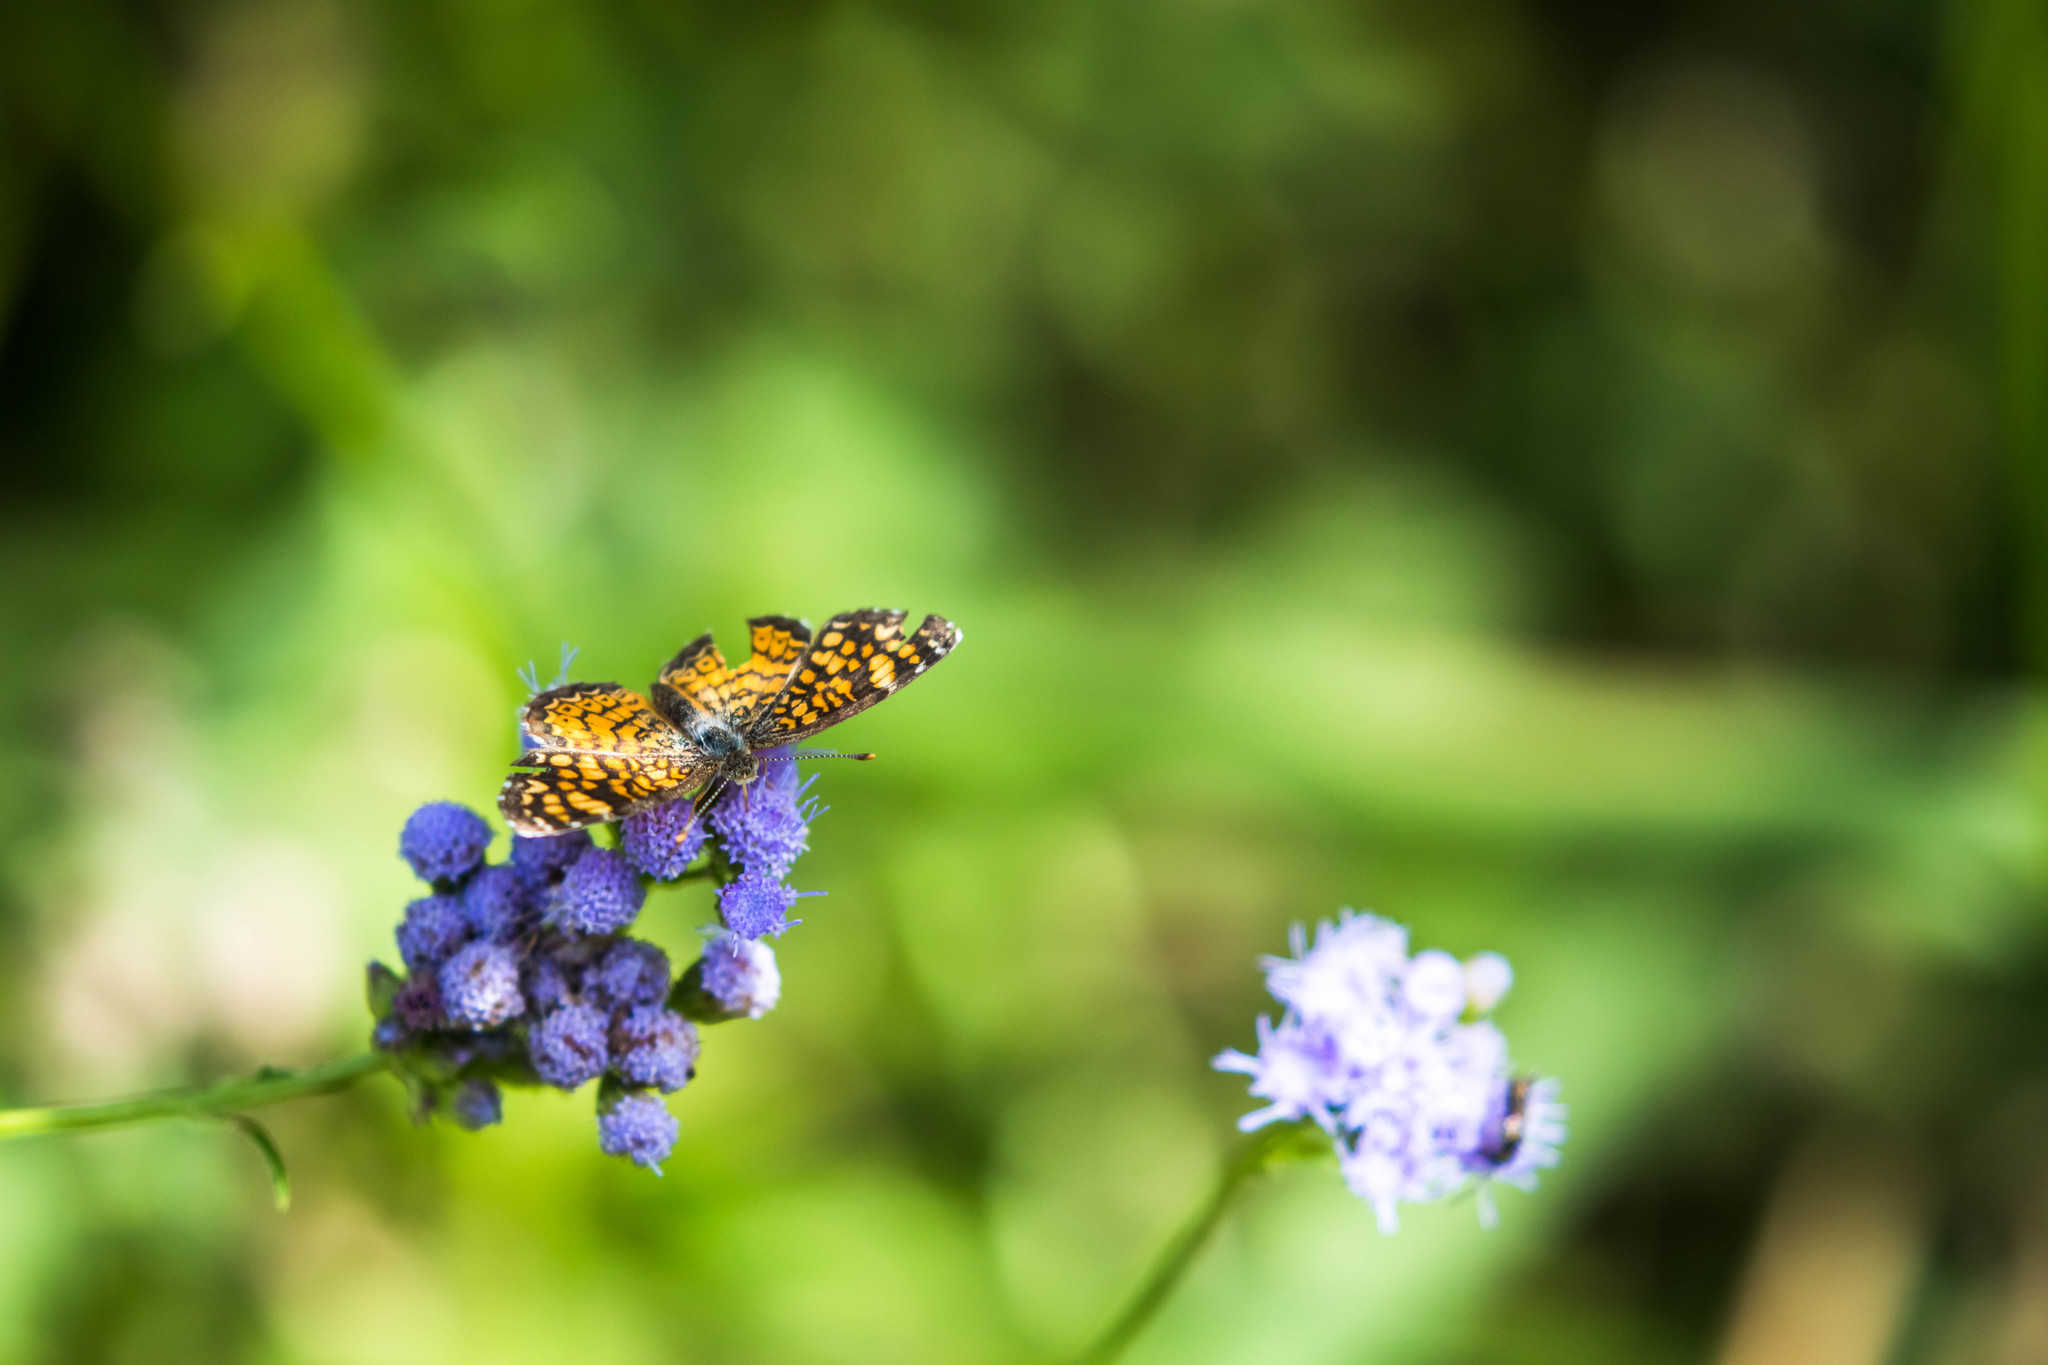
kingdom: Animalia
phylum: Arthropoda
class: Insecta
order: Lepidoptera
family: Nymphalidae
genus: Phyciodes
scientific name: Phyciodes vesta
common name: Vesta crescent
